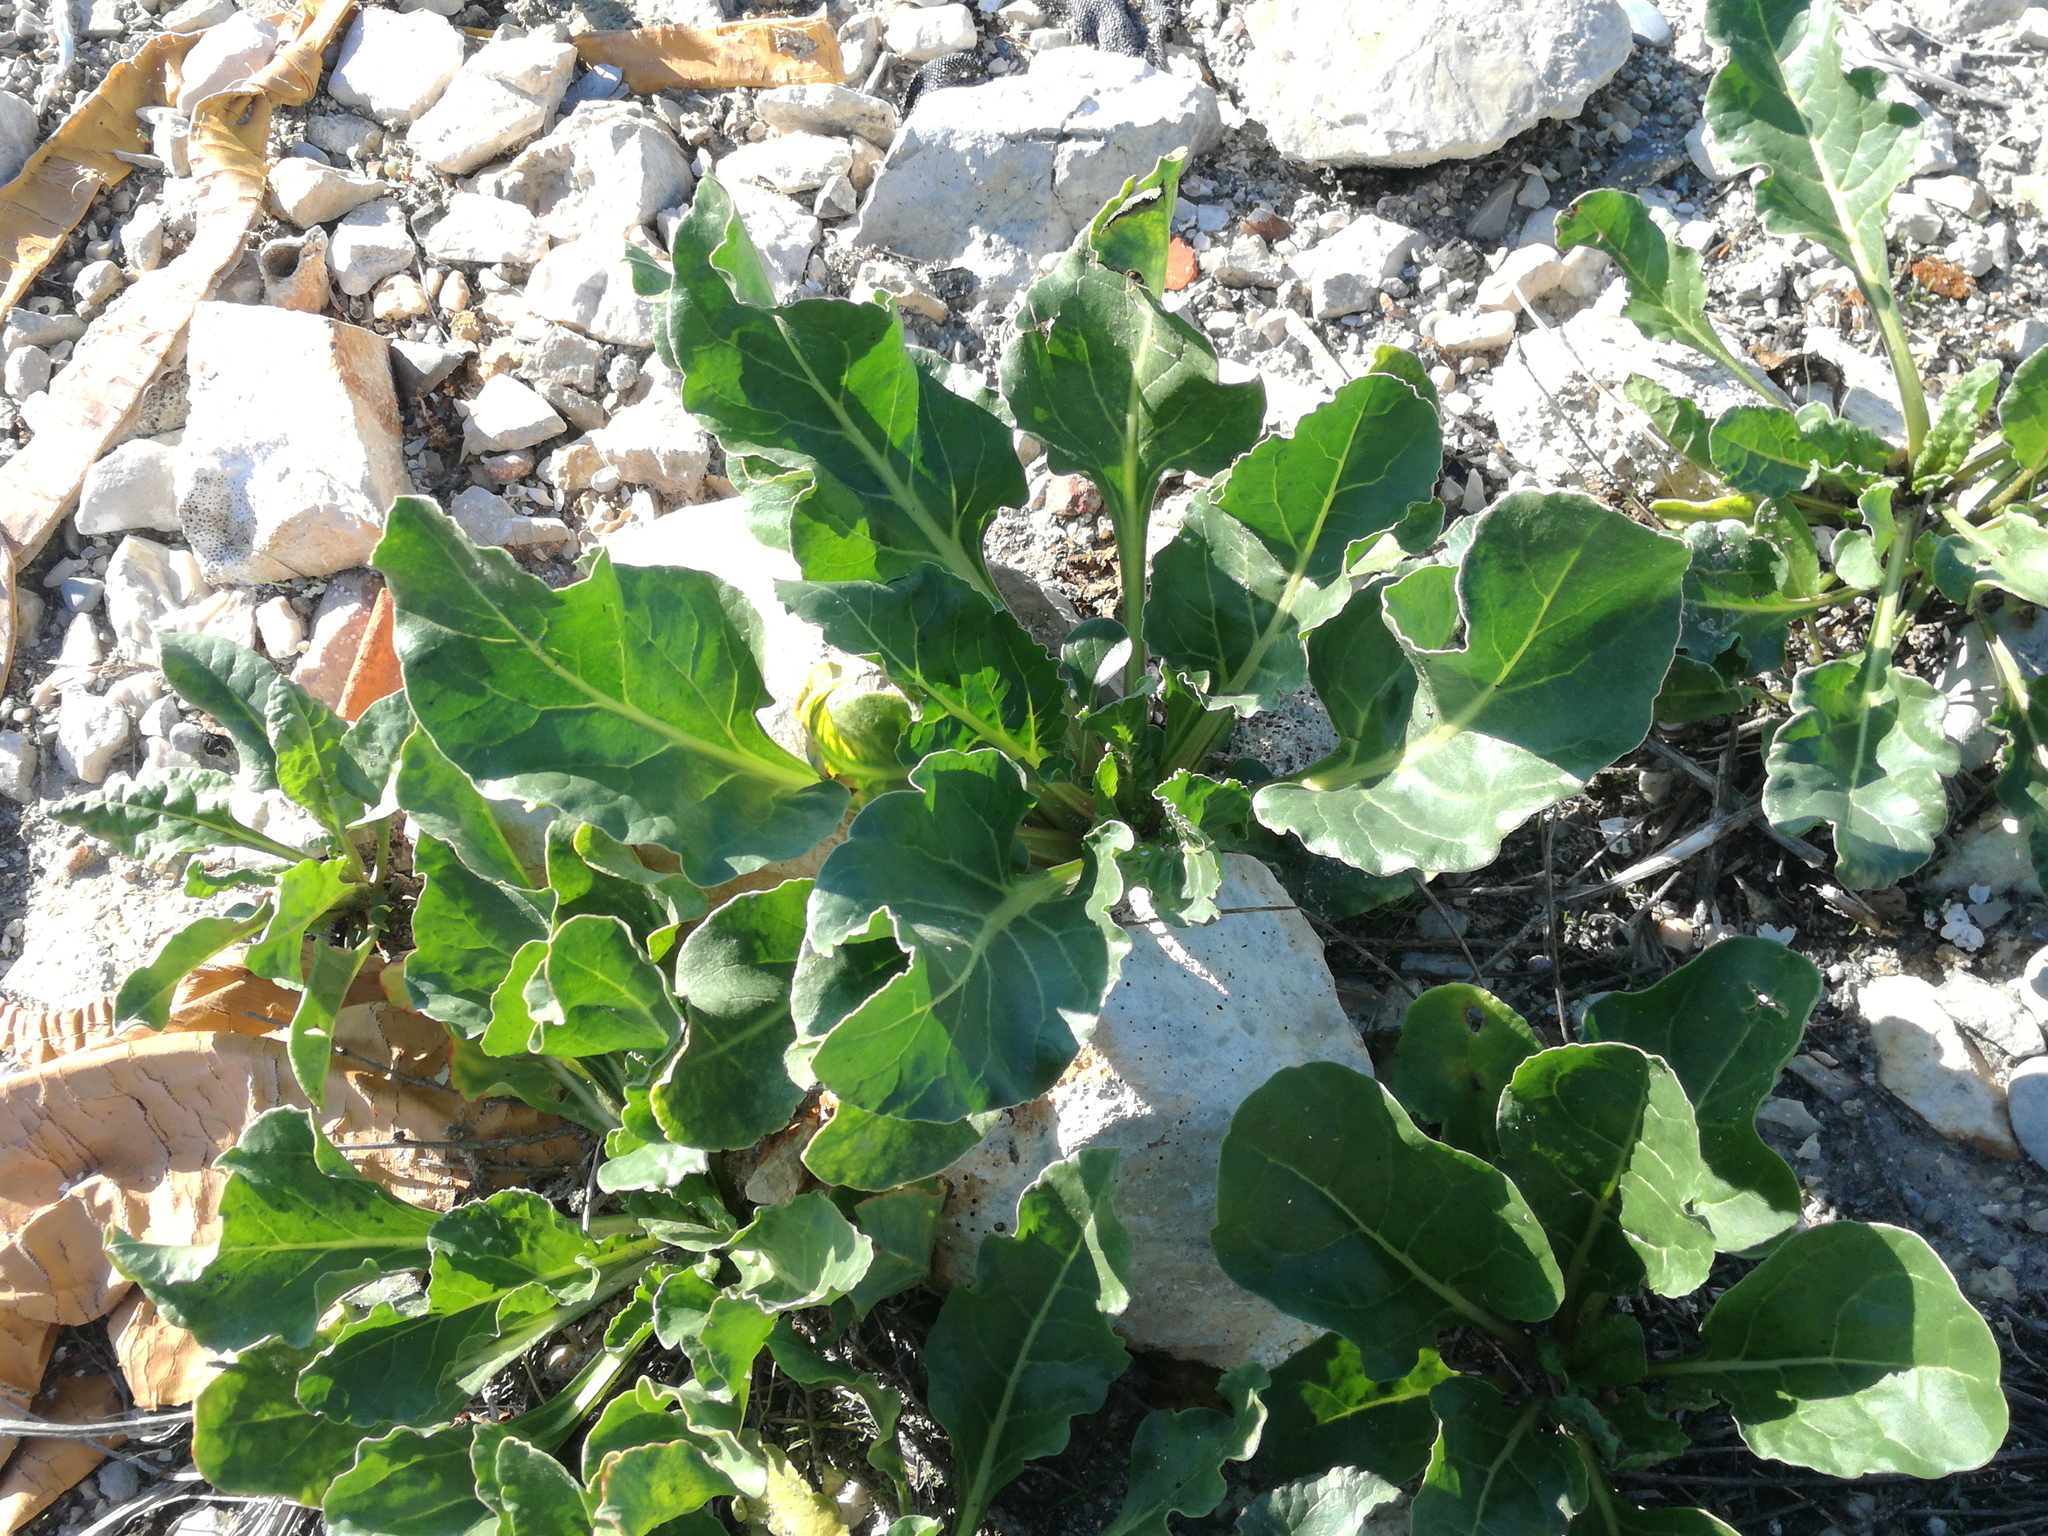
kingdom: Plantae
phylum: Tracheophyta
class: Magnoliopsida
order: Caryophyllales
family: Amaranthaceae
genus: Beta
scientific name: Beta vulgaris
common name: Beet
